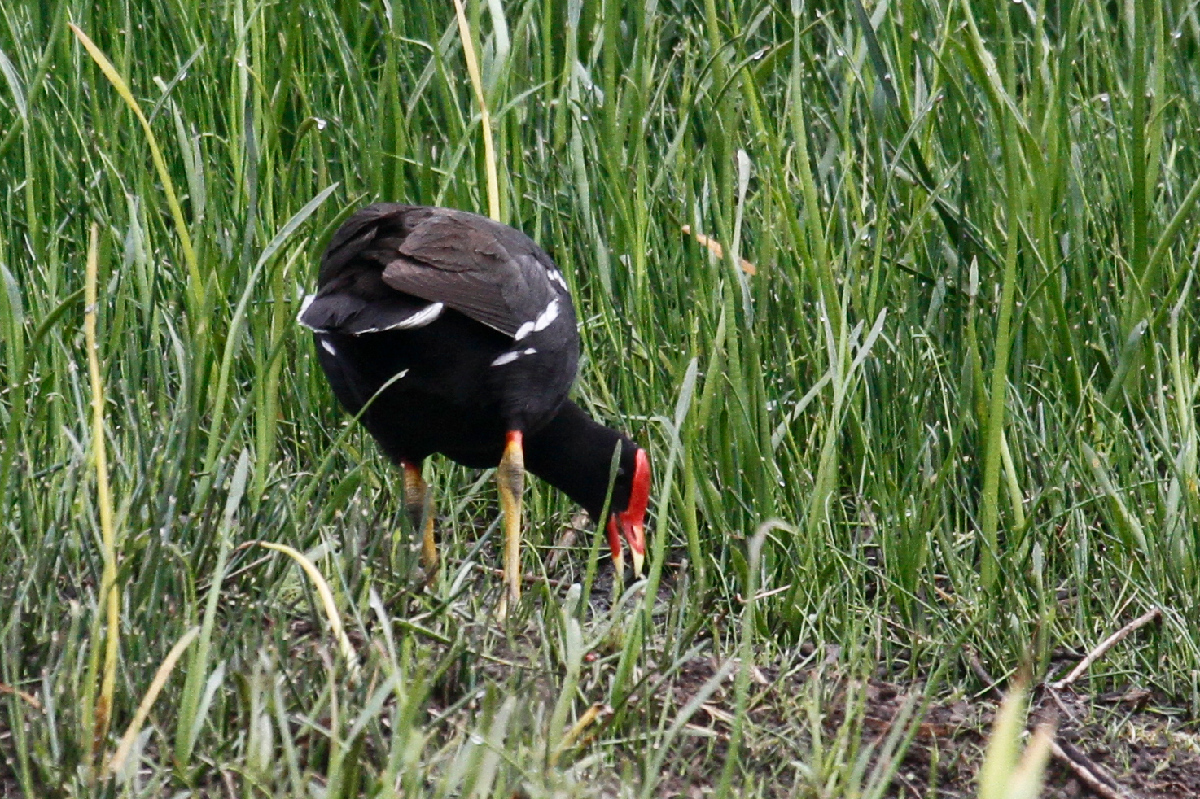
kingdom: Animalia
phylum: Chordata
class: Aves
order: Gruiformes
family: Rallidae
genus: Gallinula
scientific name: Gallinula chloropus
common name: Common moorhen
